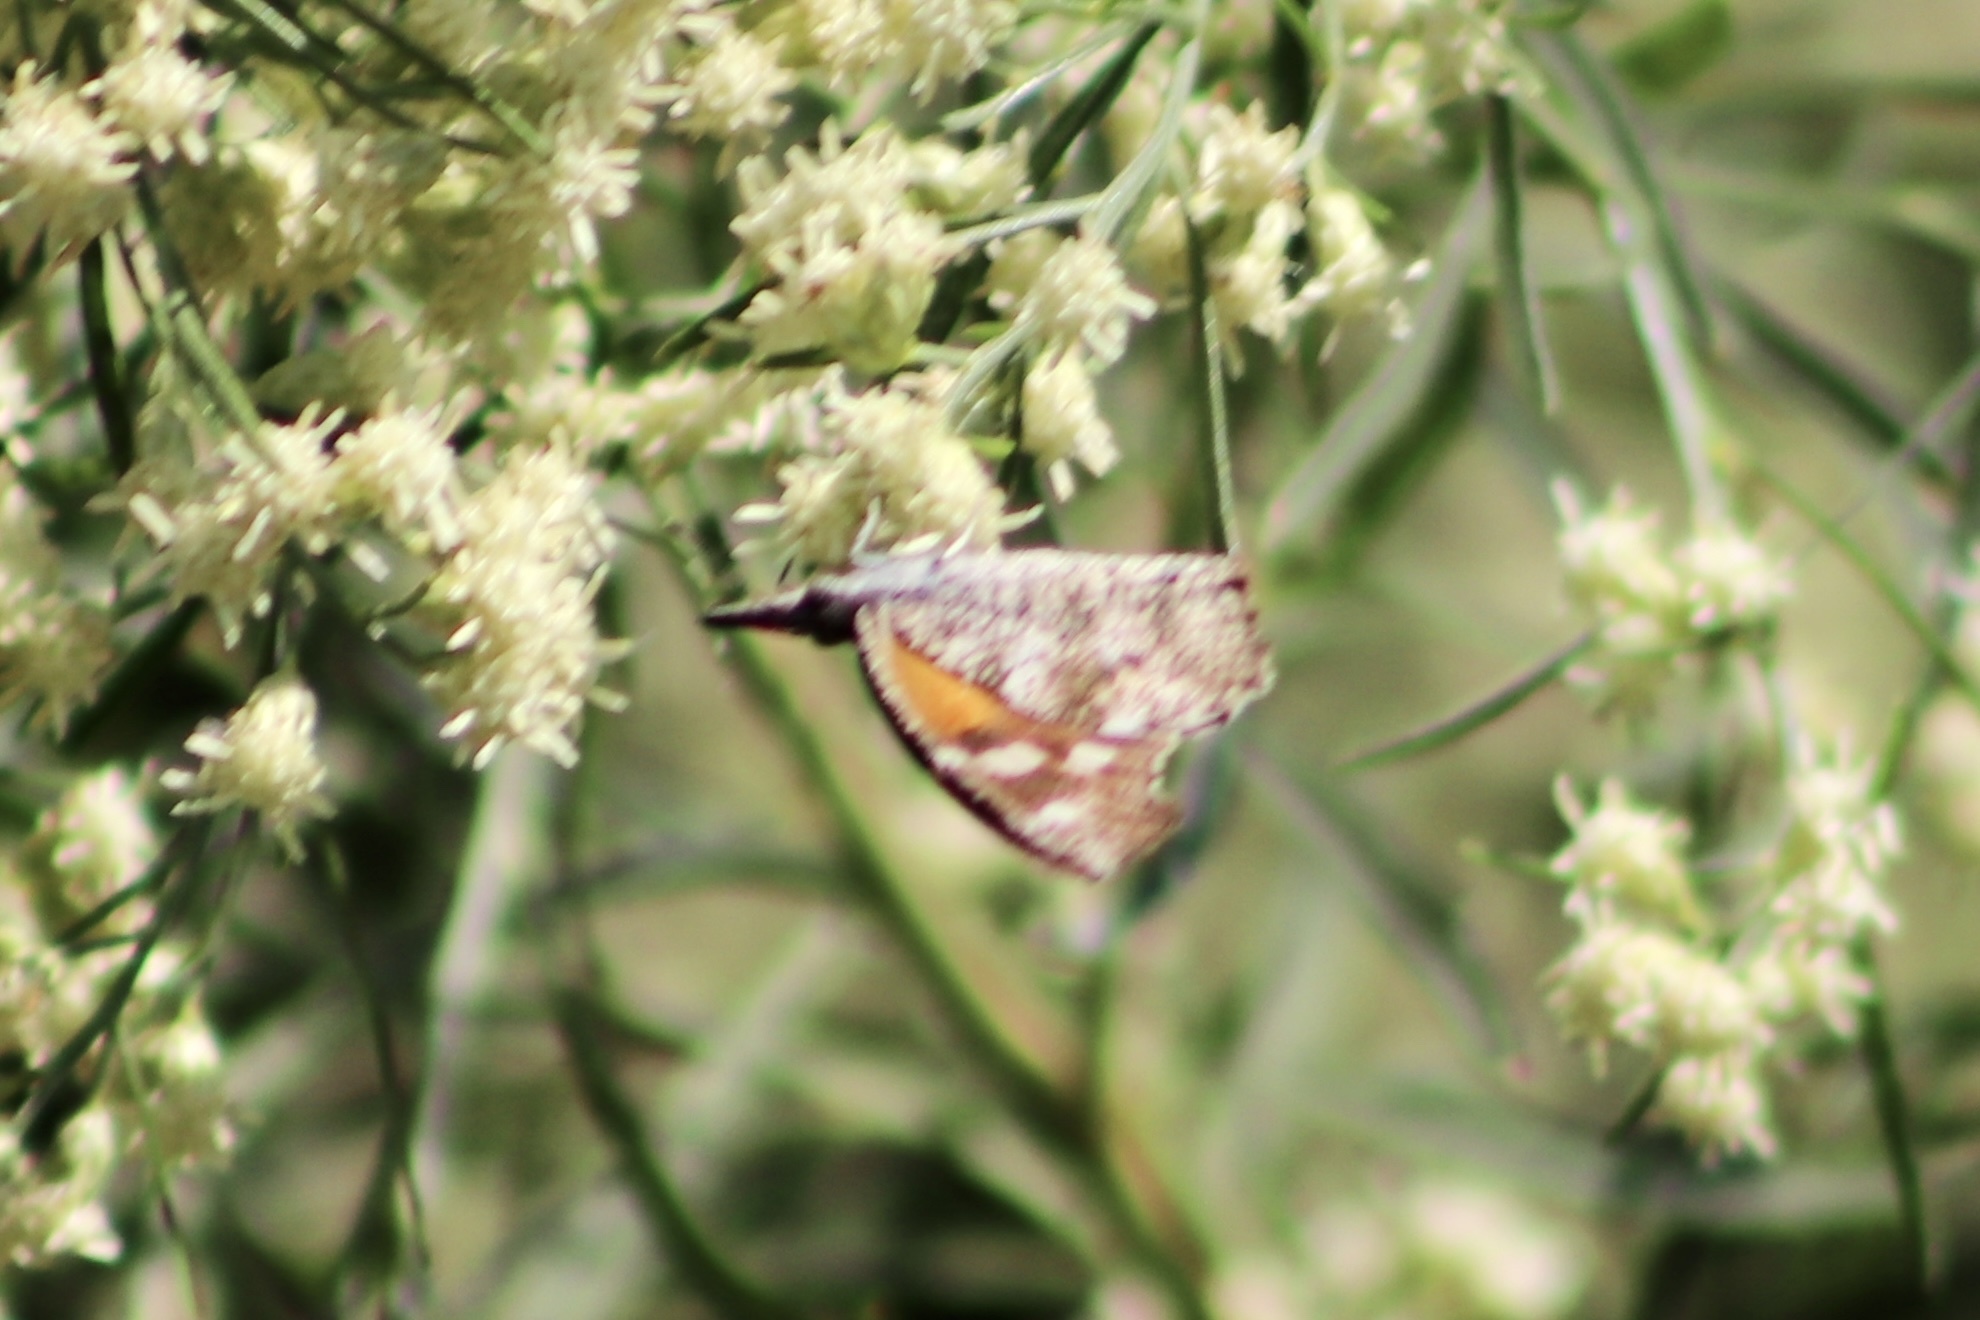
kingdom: Animalia
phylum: Arthropoda
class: Insecta
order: Lepidoptera
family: Nymphalidae
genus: Libytheana
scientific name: Libytheana carinenta
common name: American snout
